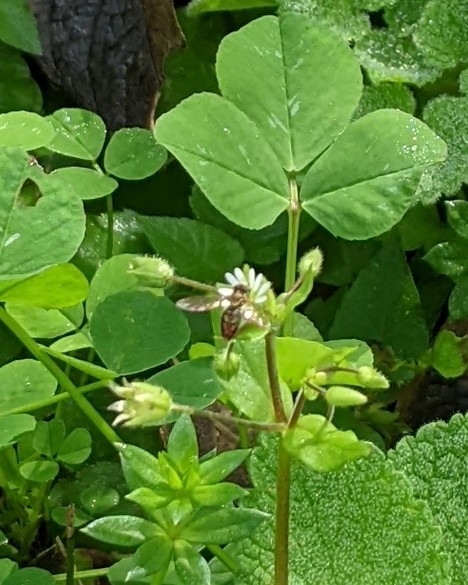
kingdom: Animalia
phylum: Arthropoda
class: Insecta
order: Diptera
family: Syrphidae
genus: Toxomerus
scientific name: Toxomerus marginatus
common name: Syrphid fly
